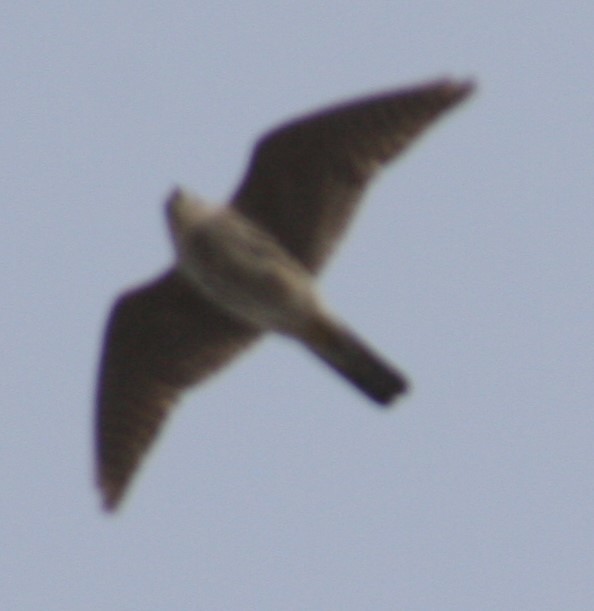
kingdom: Animalia
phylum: Chordata
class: Aves
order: Falconiformes
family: Falconidae
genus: Falco
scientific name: Falco columbarius
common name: Merlin
